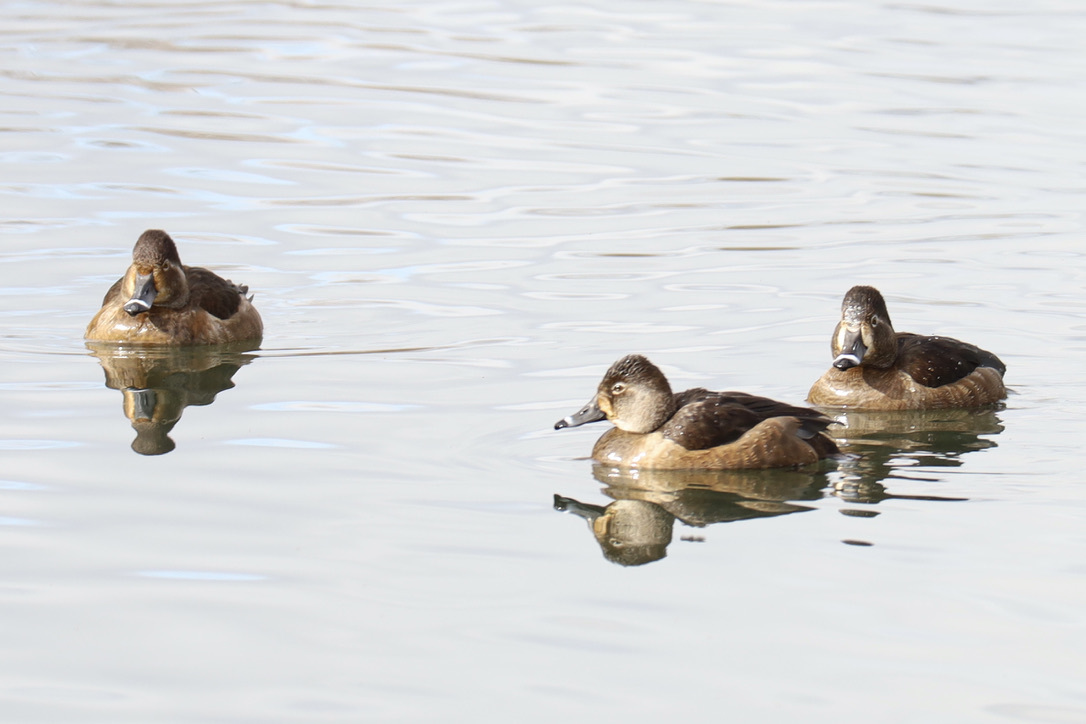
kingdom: Animalia
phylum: Chordata
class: Aves
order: Anseriformes
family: Anatidae
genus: Aythya
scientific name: Aythya collaris
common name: Ring-necked duck
